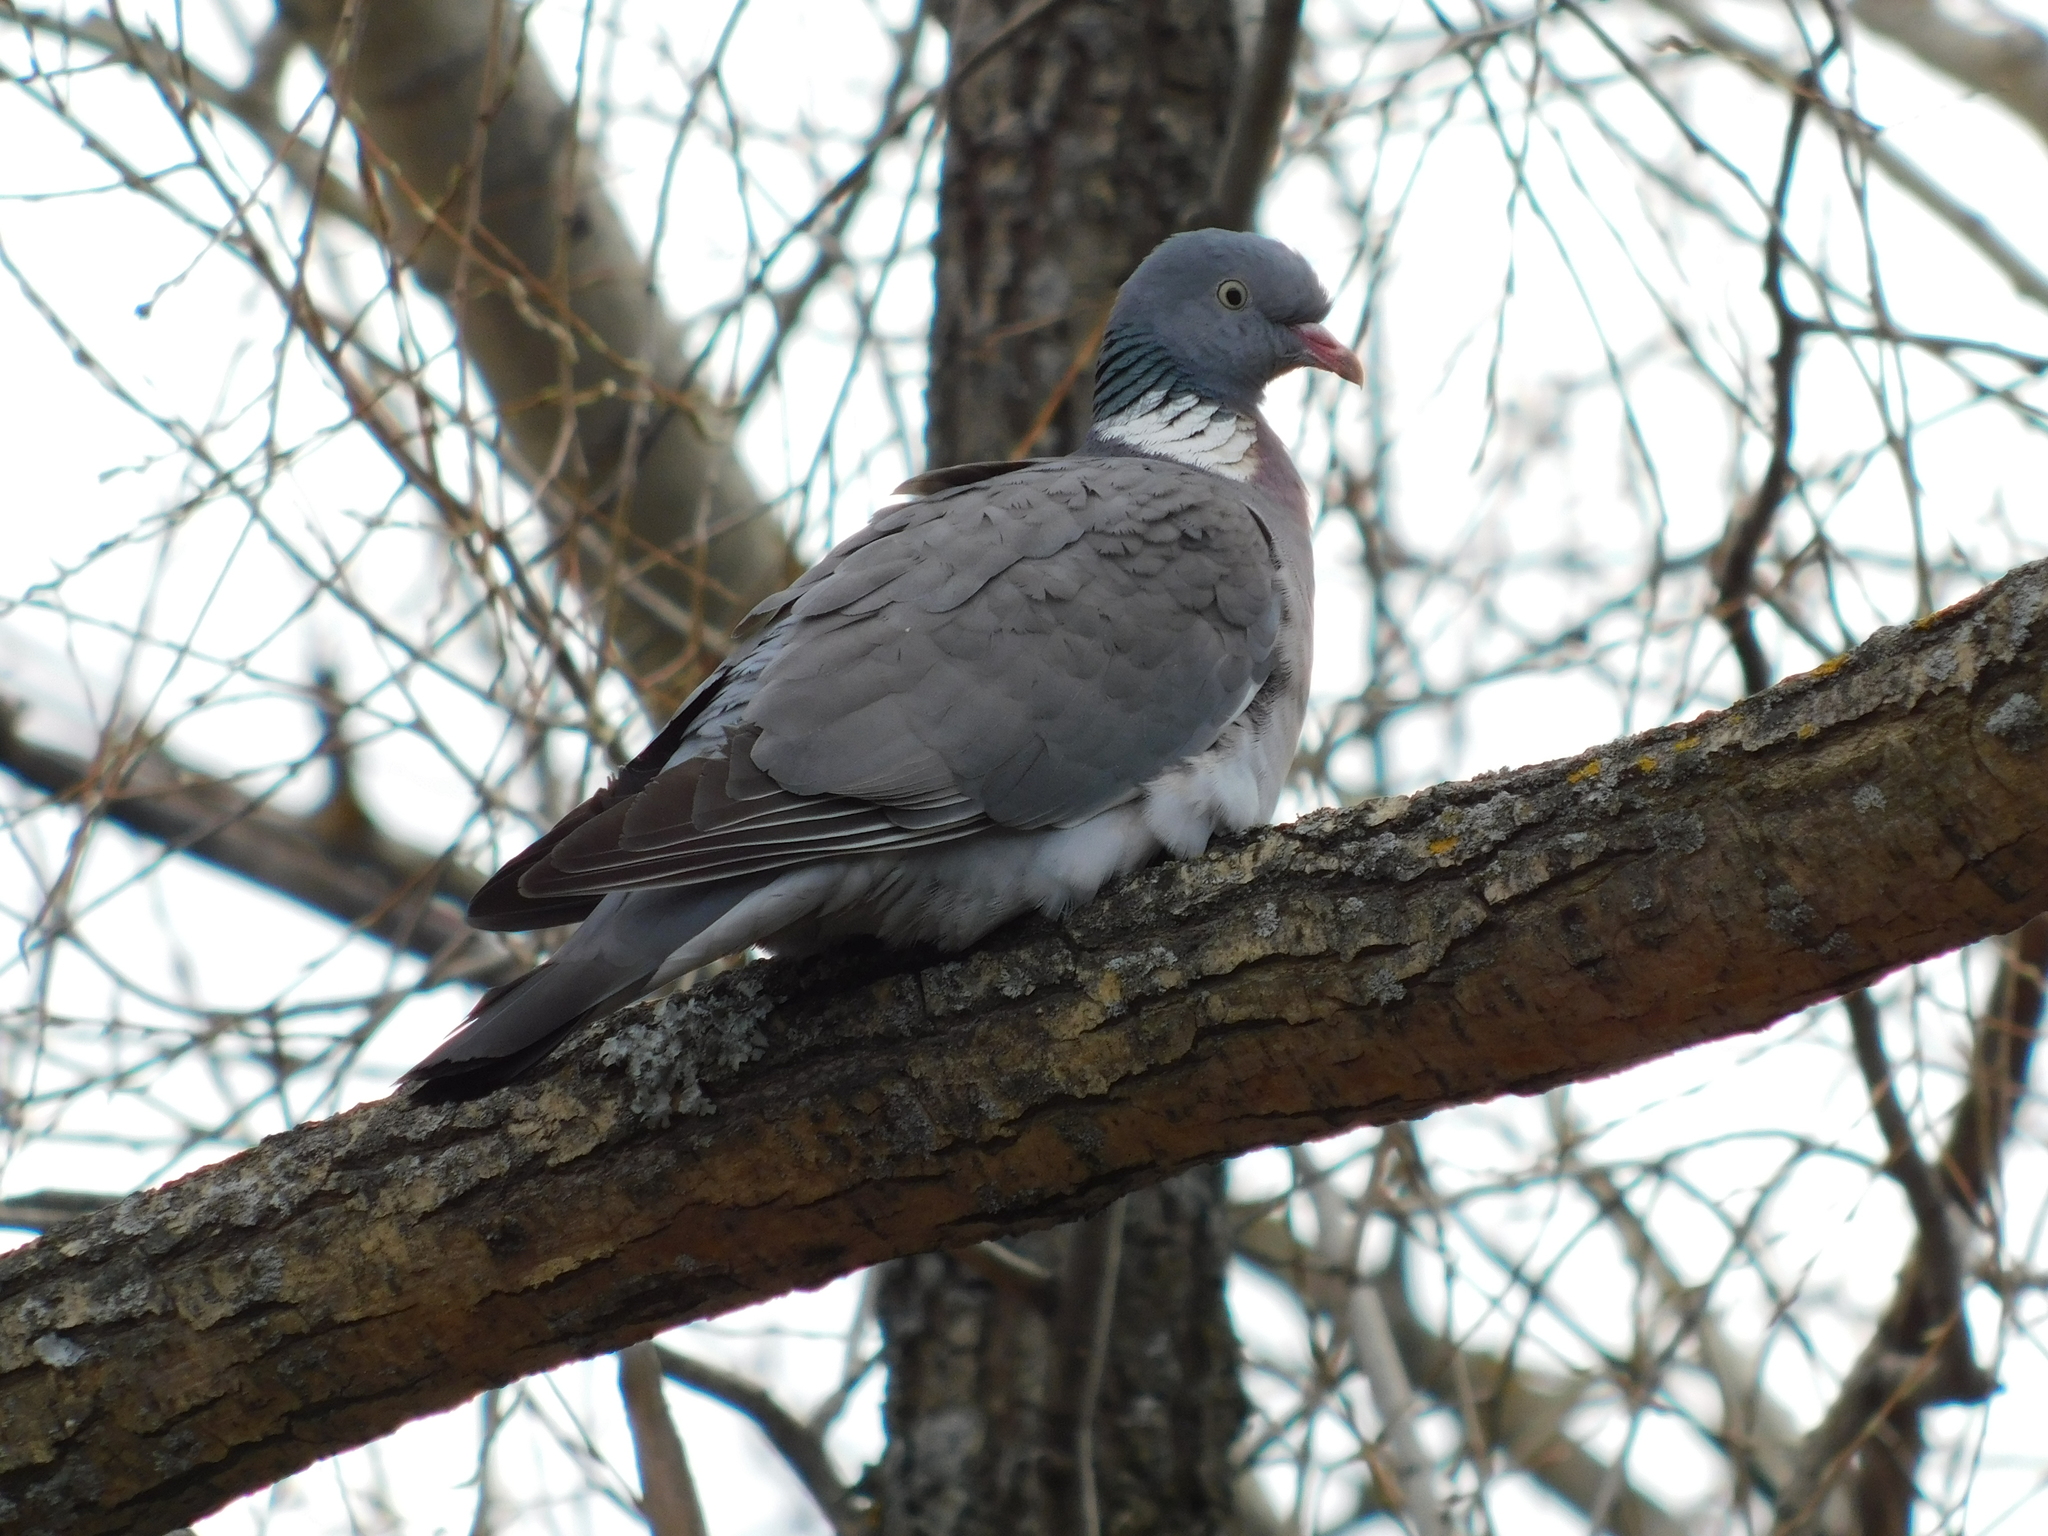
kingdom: Animalia
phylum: Chordata
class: Aves
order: Columbiformes
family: Columbidae
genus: Columba
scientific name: Columba palumbus
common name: Common wood pigeon
